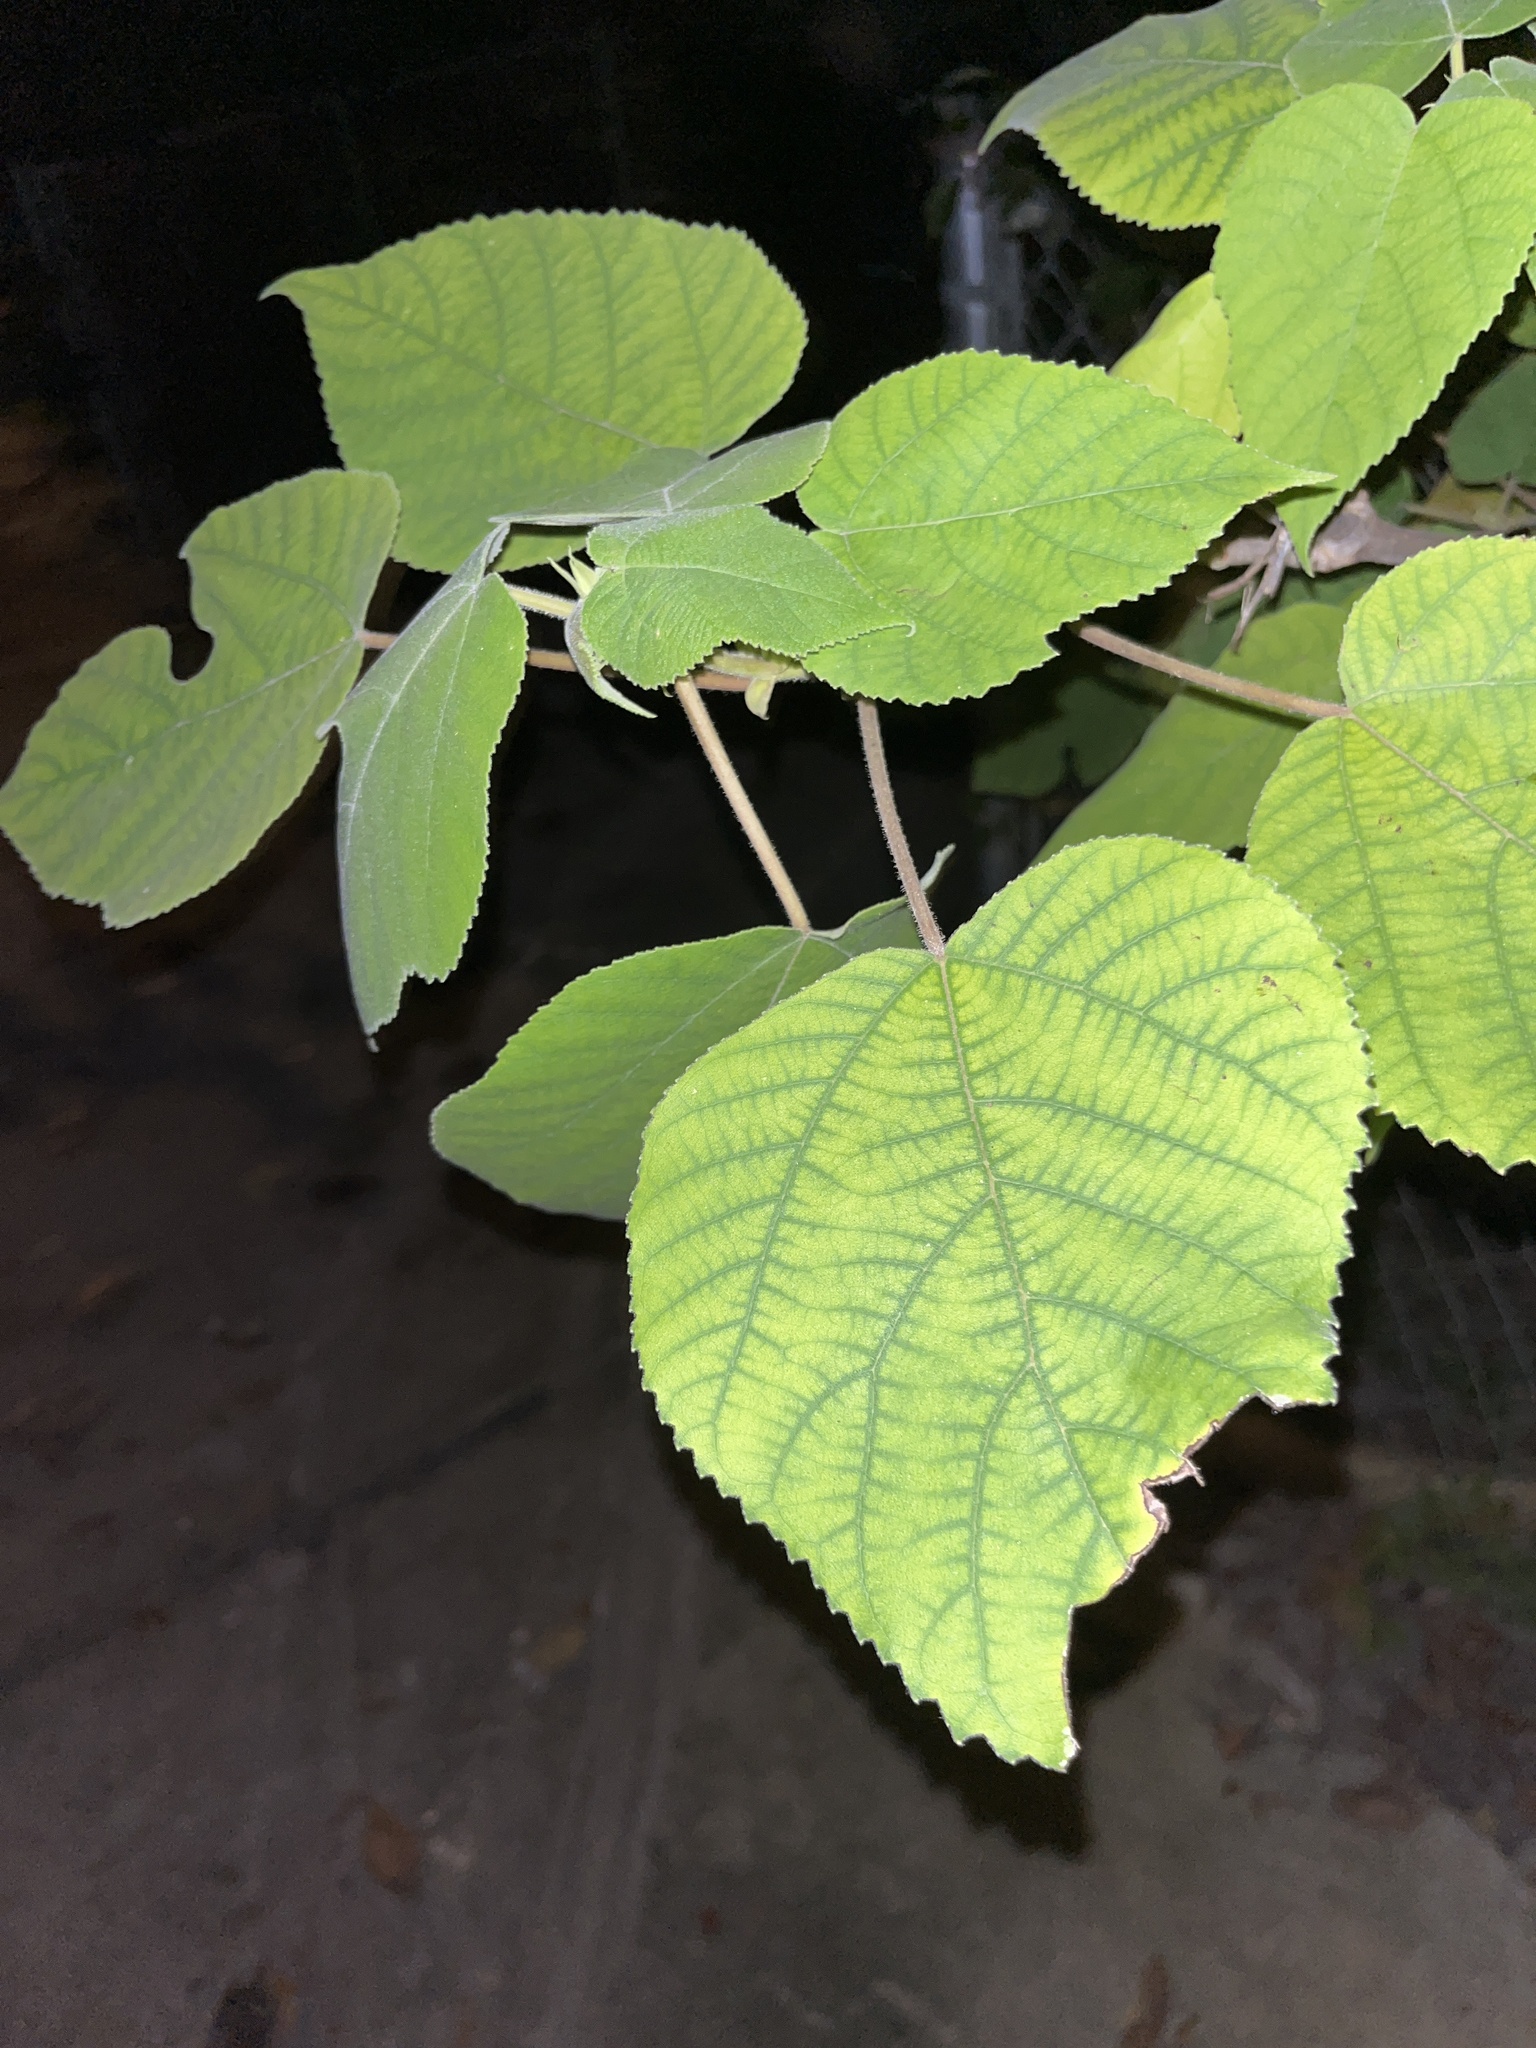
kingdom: Plantae
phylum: Tracheophyta
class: Magnoliopsida
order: Rosales
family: Moraceae
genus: Broussonetia
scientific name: Broussonetia papyrifera
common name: Paper mulberry
